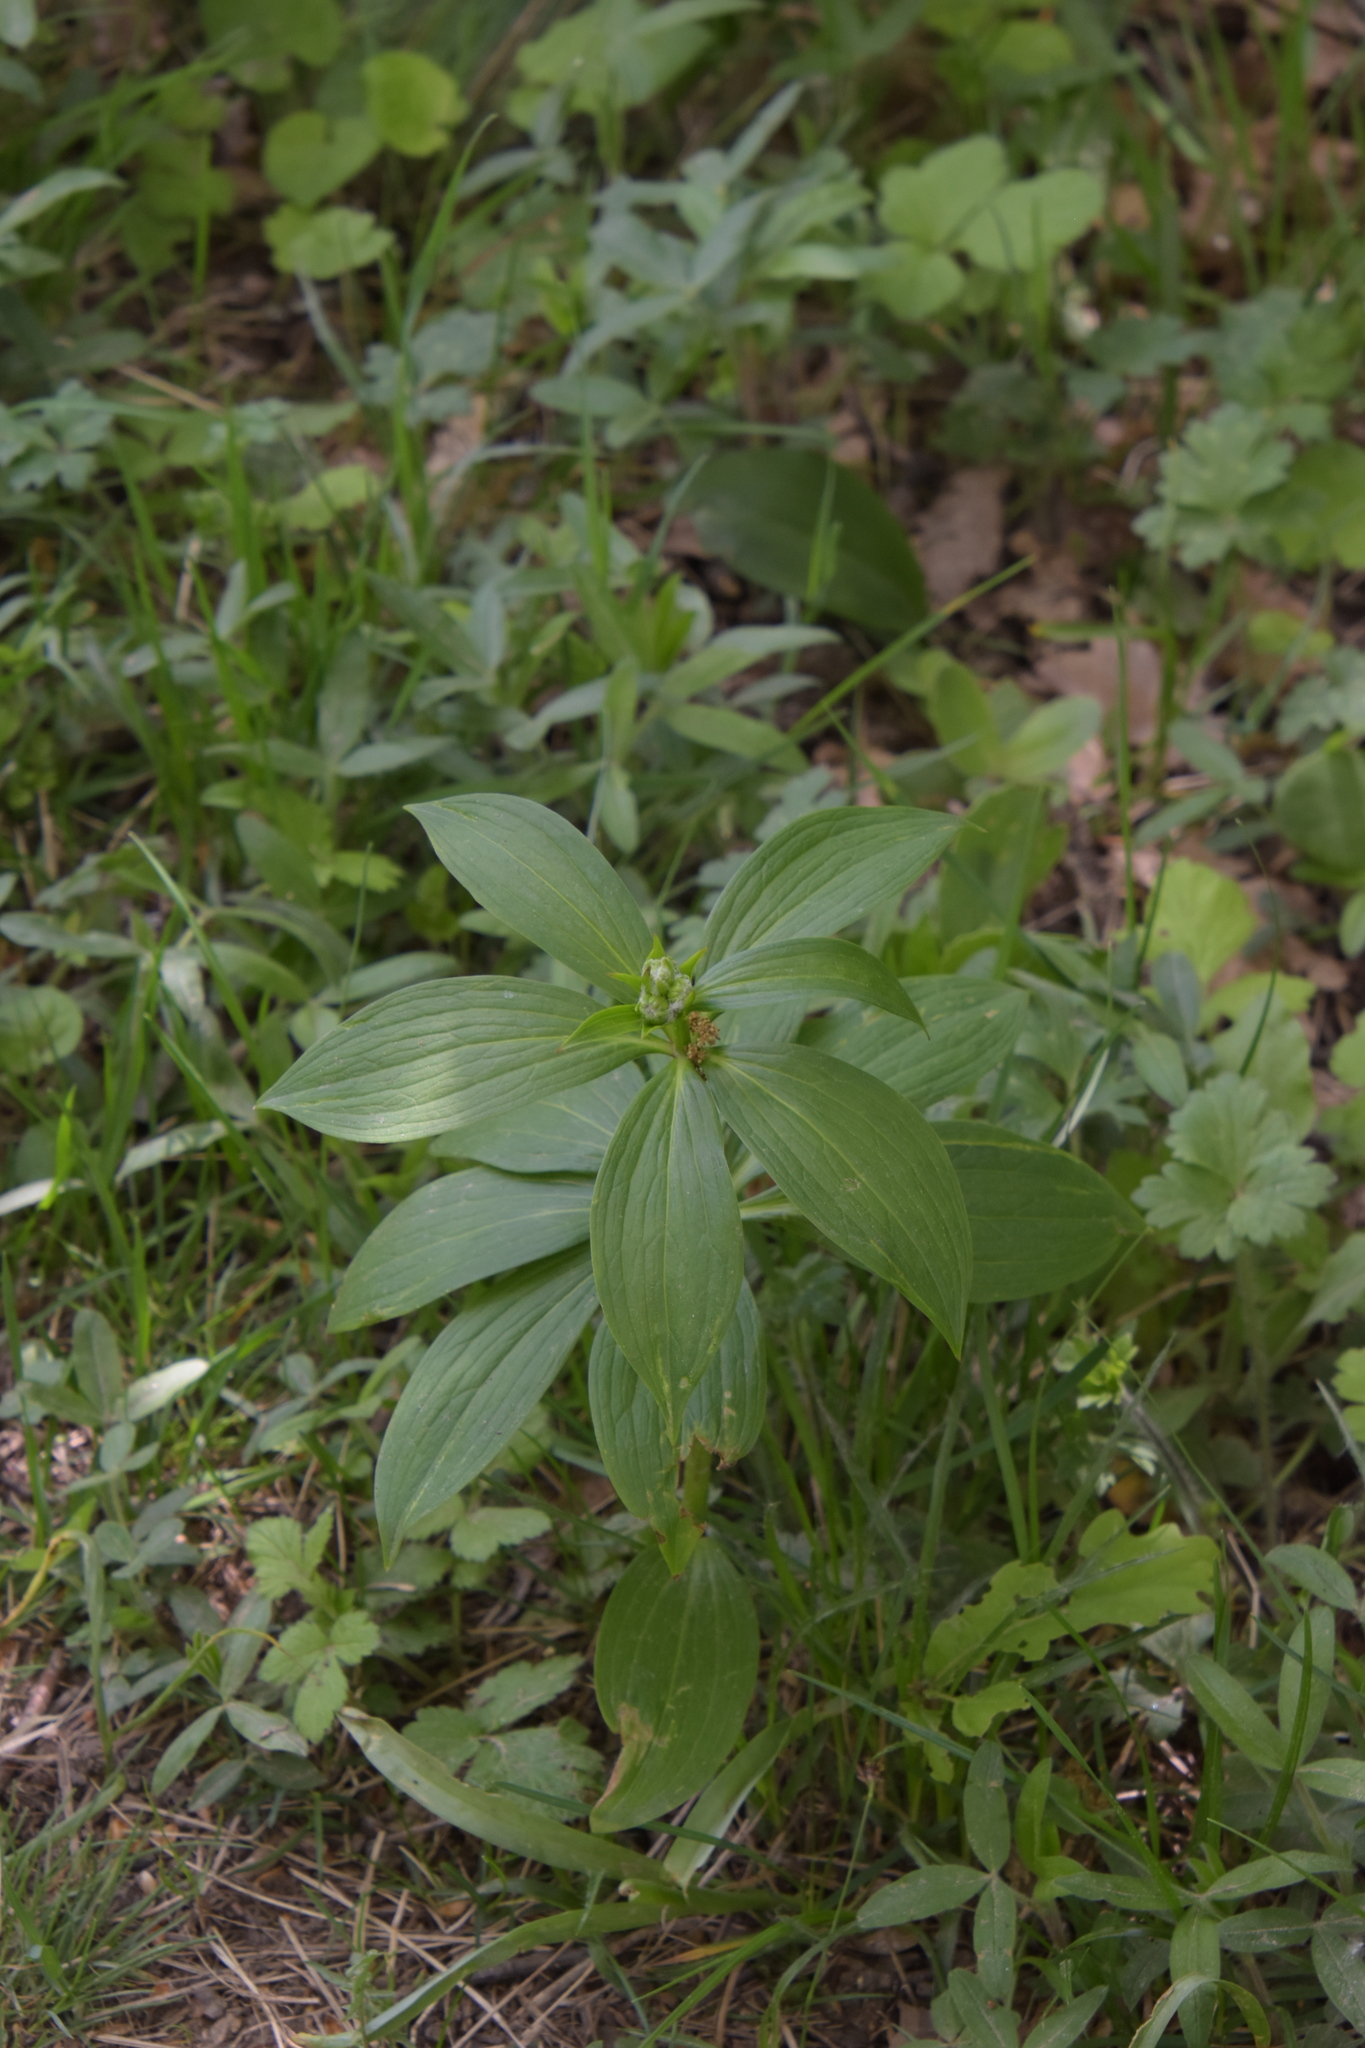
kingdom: Plantae
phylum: Tracheophyta
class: Liliopsida
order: Liliales
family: Liliaceae
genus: Lilium
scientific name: Lilium martagon
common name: Martagon lily
